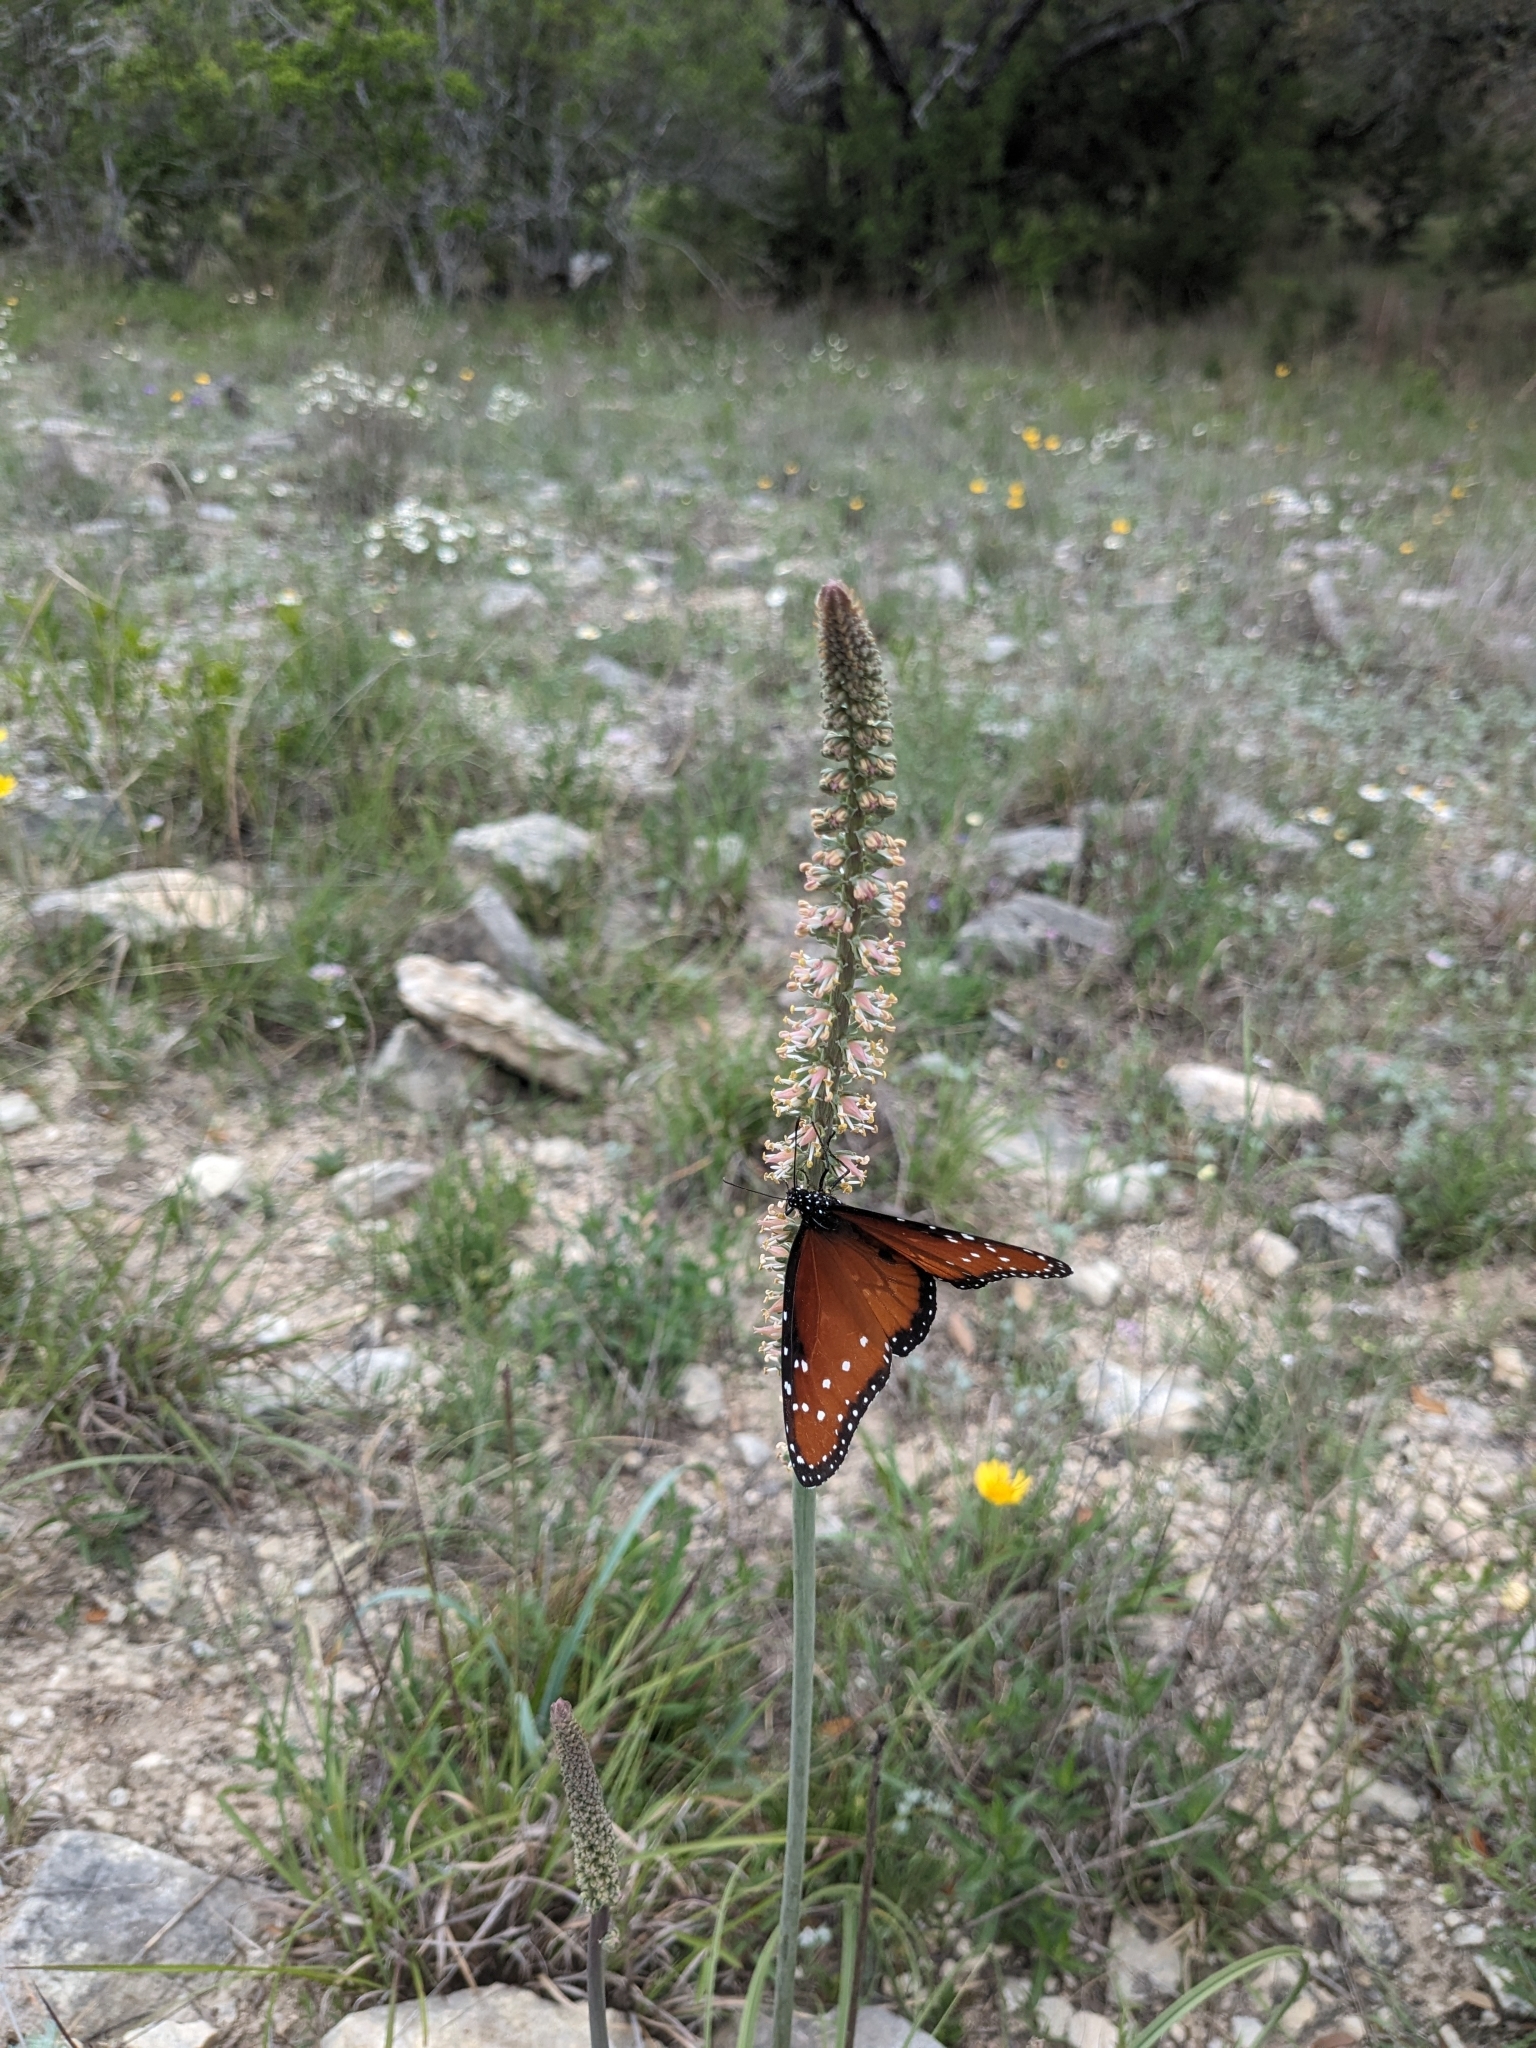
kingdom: Animalia
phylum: Arthropoda
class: Insecta
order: Lepidoptera
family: Nymphalidae
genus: Danaus
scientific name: Danaus gilippus
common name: Queen
